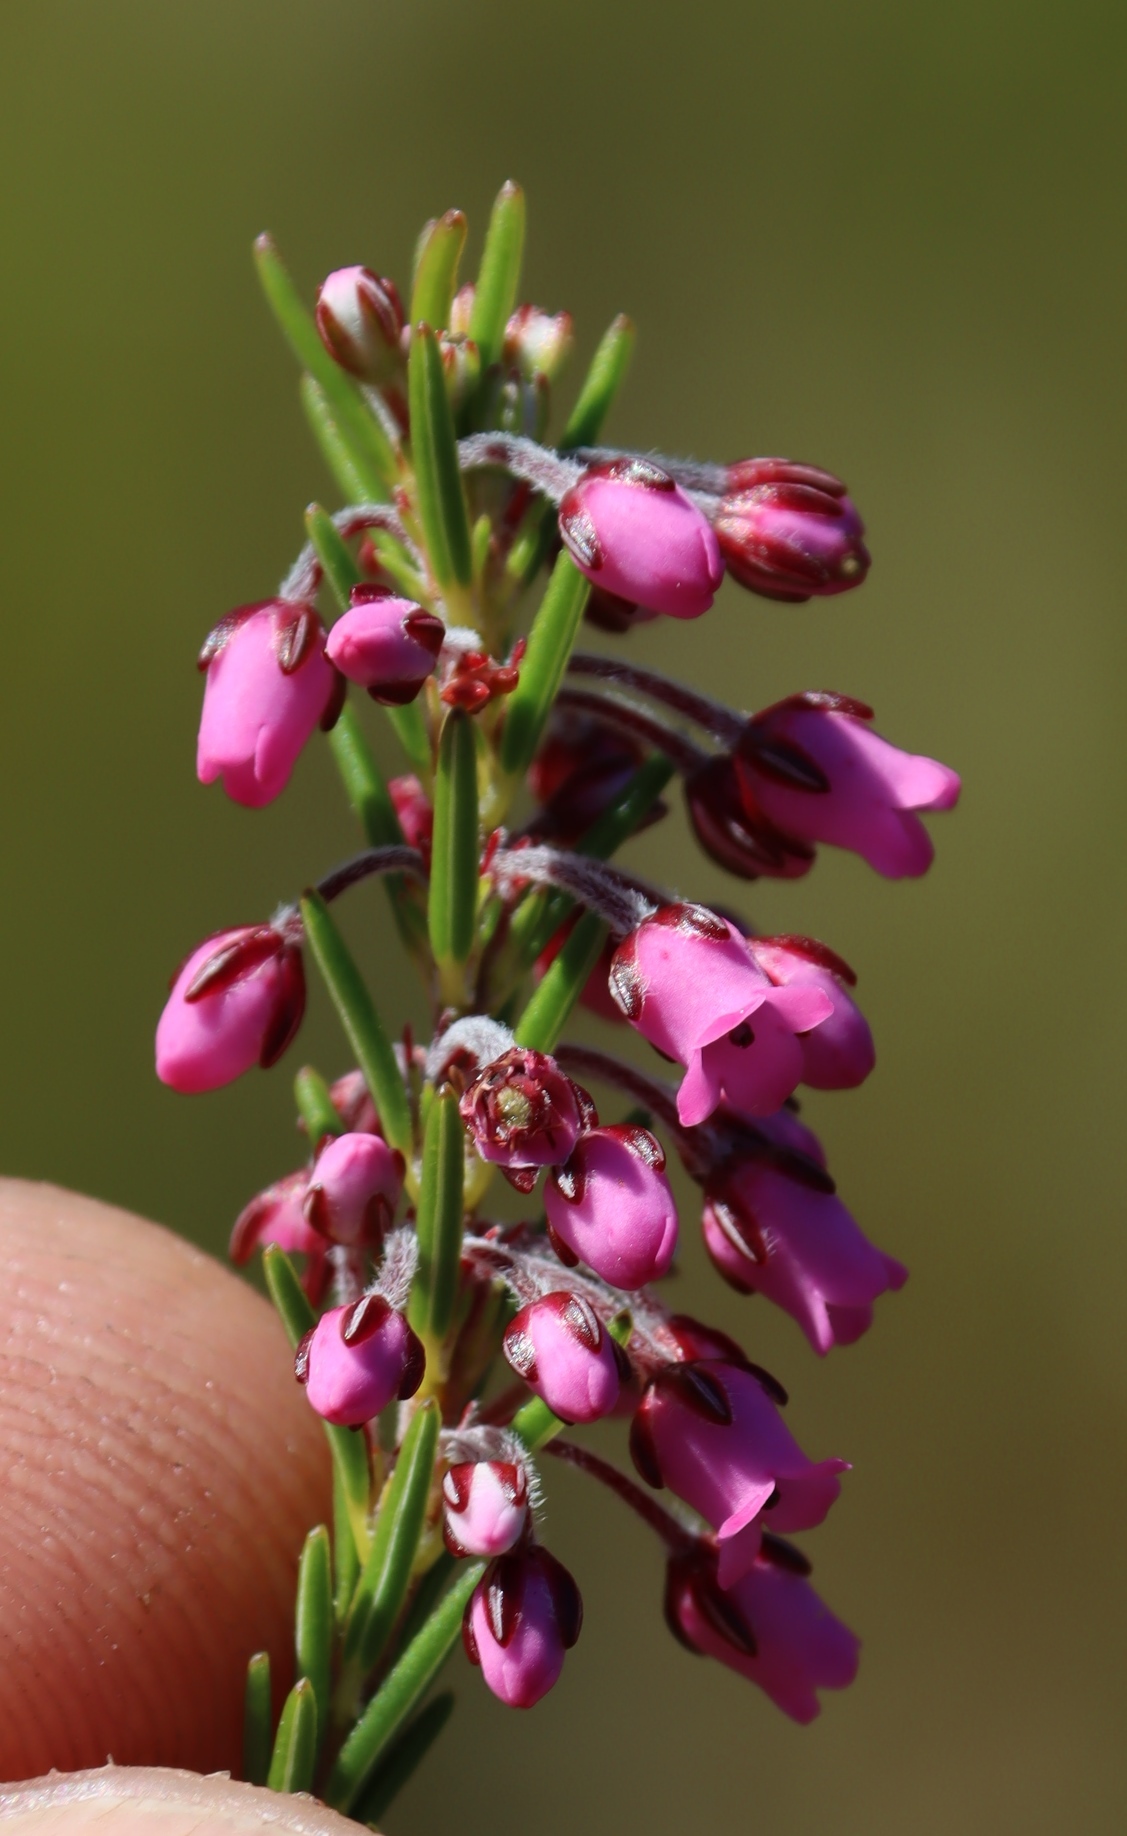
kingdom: Plantae
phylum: Tracheophyta
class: Magnoliopsida
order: Ericales
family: Ericaceae
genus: Erica
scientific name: Erica pulchella
